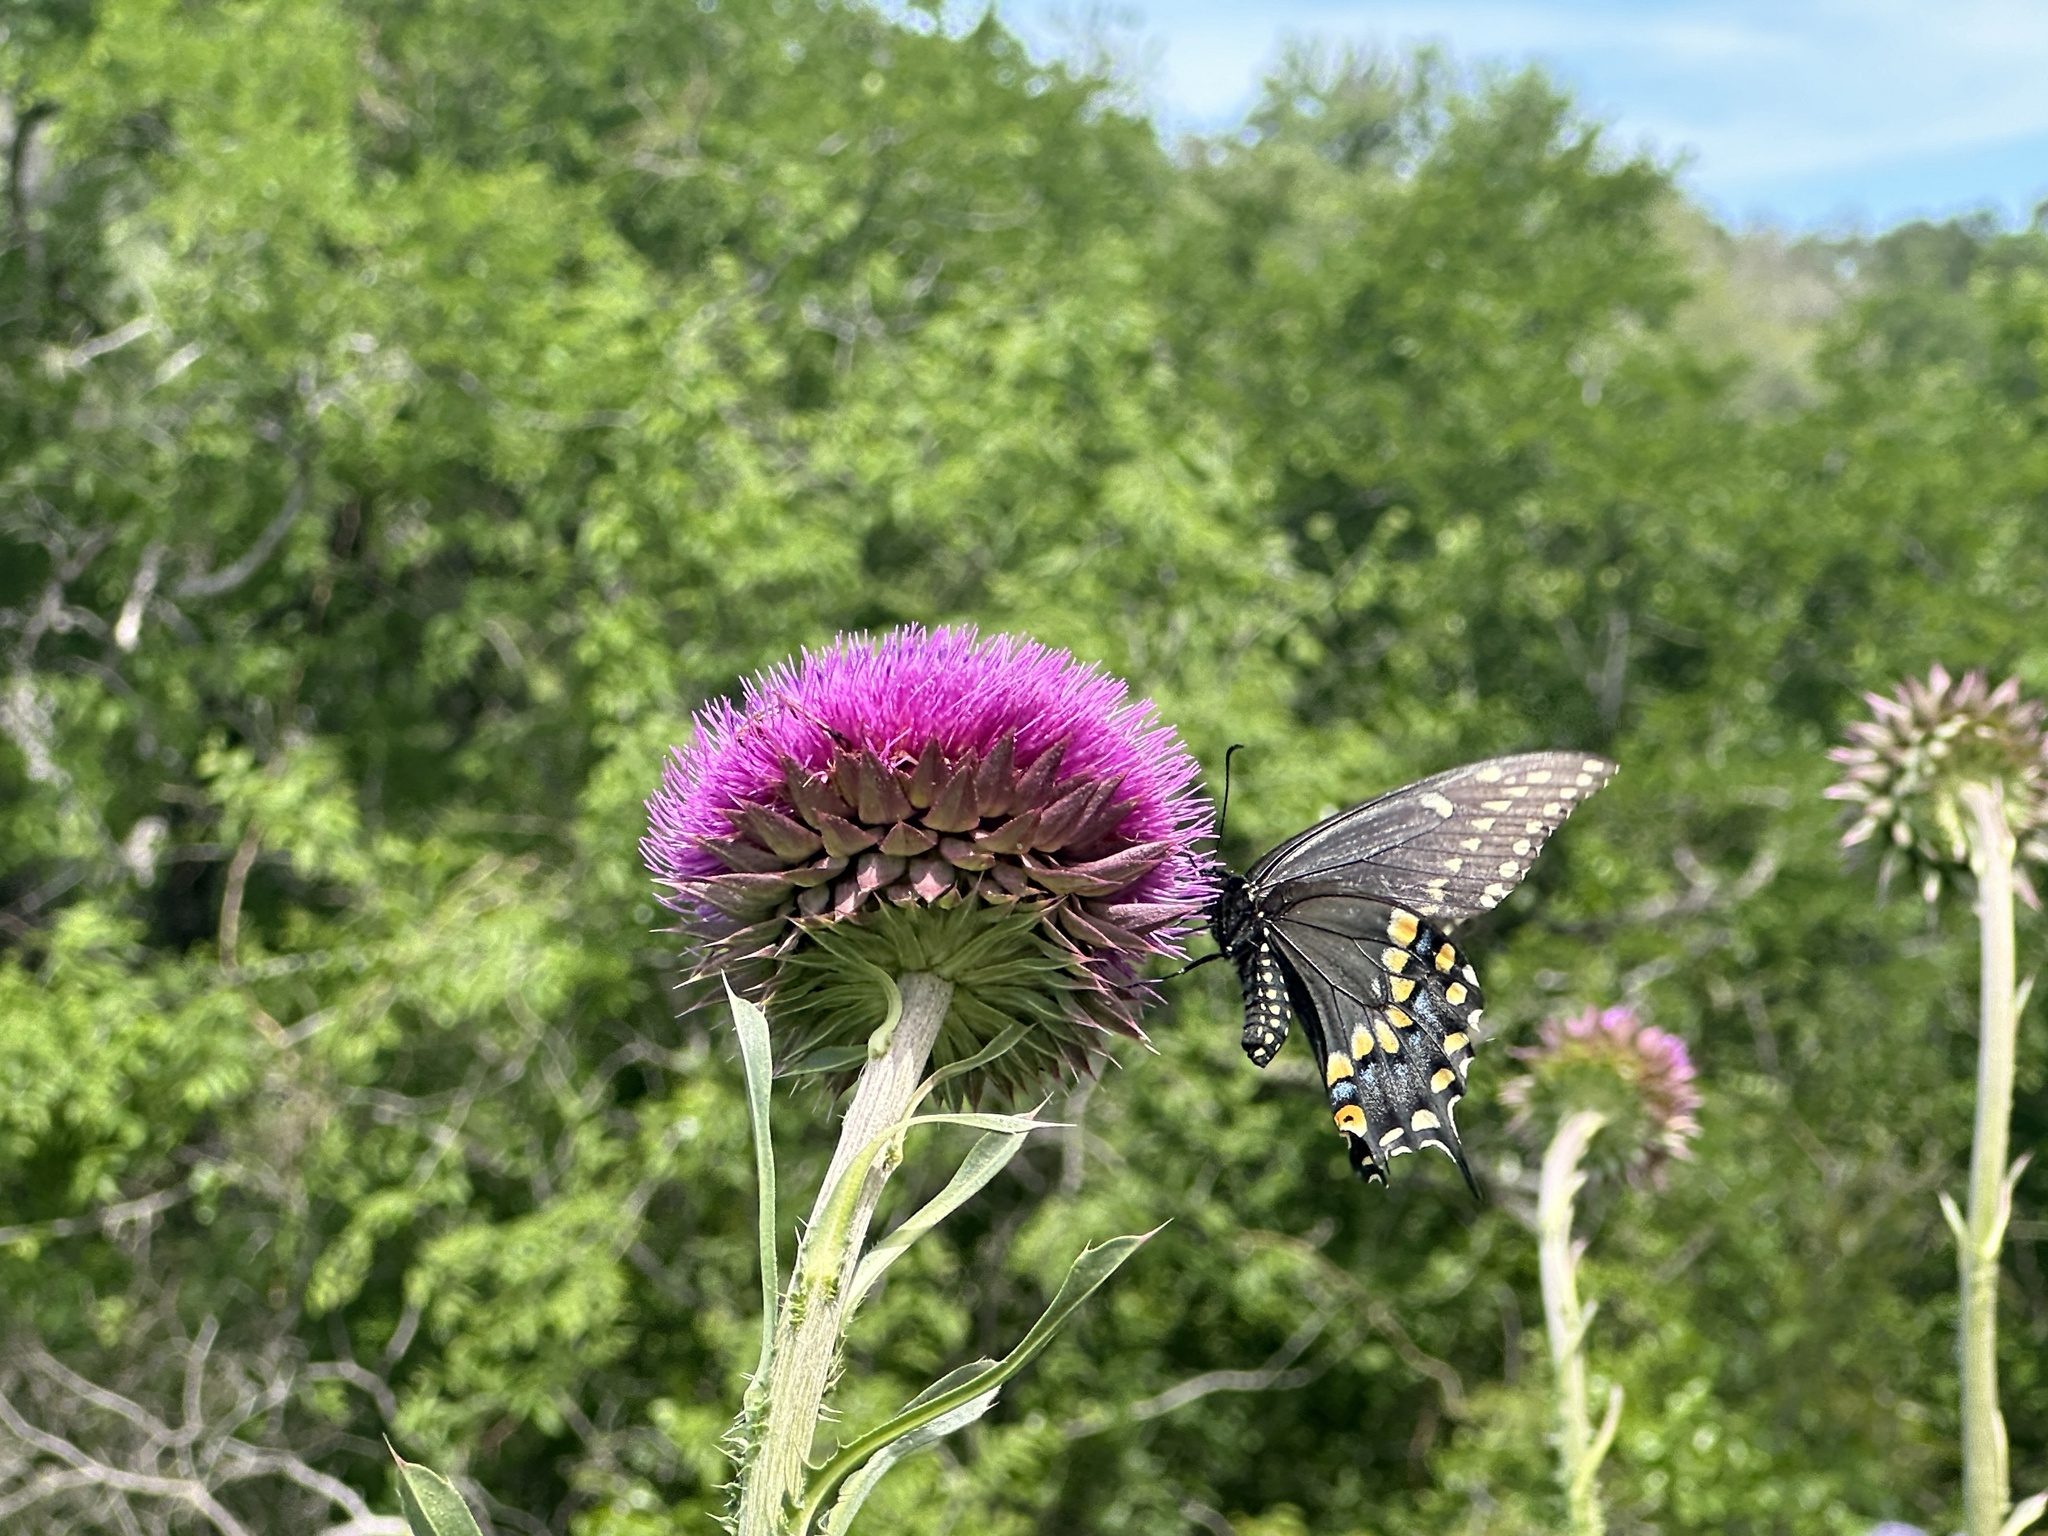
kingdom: Animalia
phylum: Arthropoda
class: Insecta
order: Lepidoptera
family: Papilionidae
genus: Papilio
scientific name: Papilio polyxenes
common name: Black swallowtail
